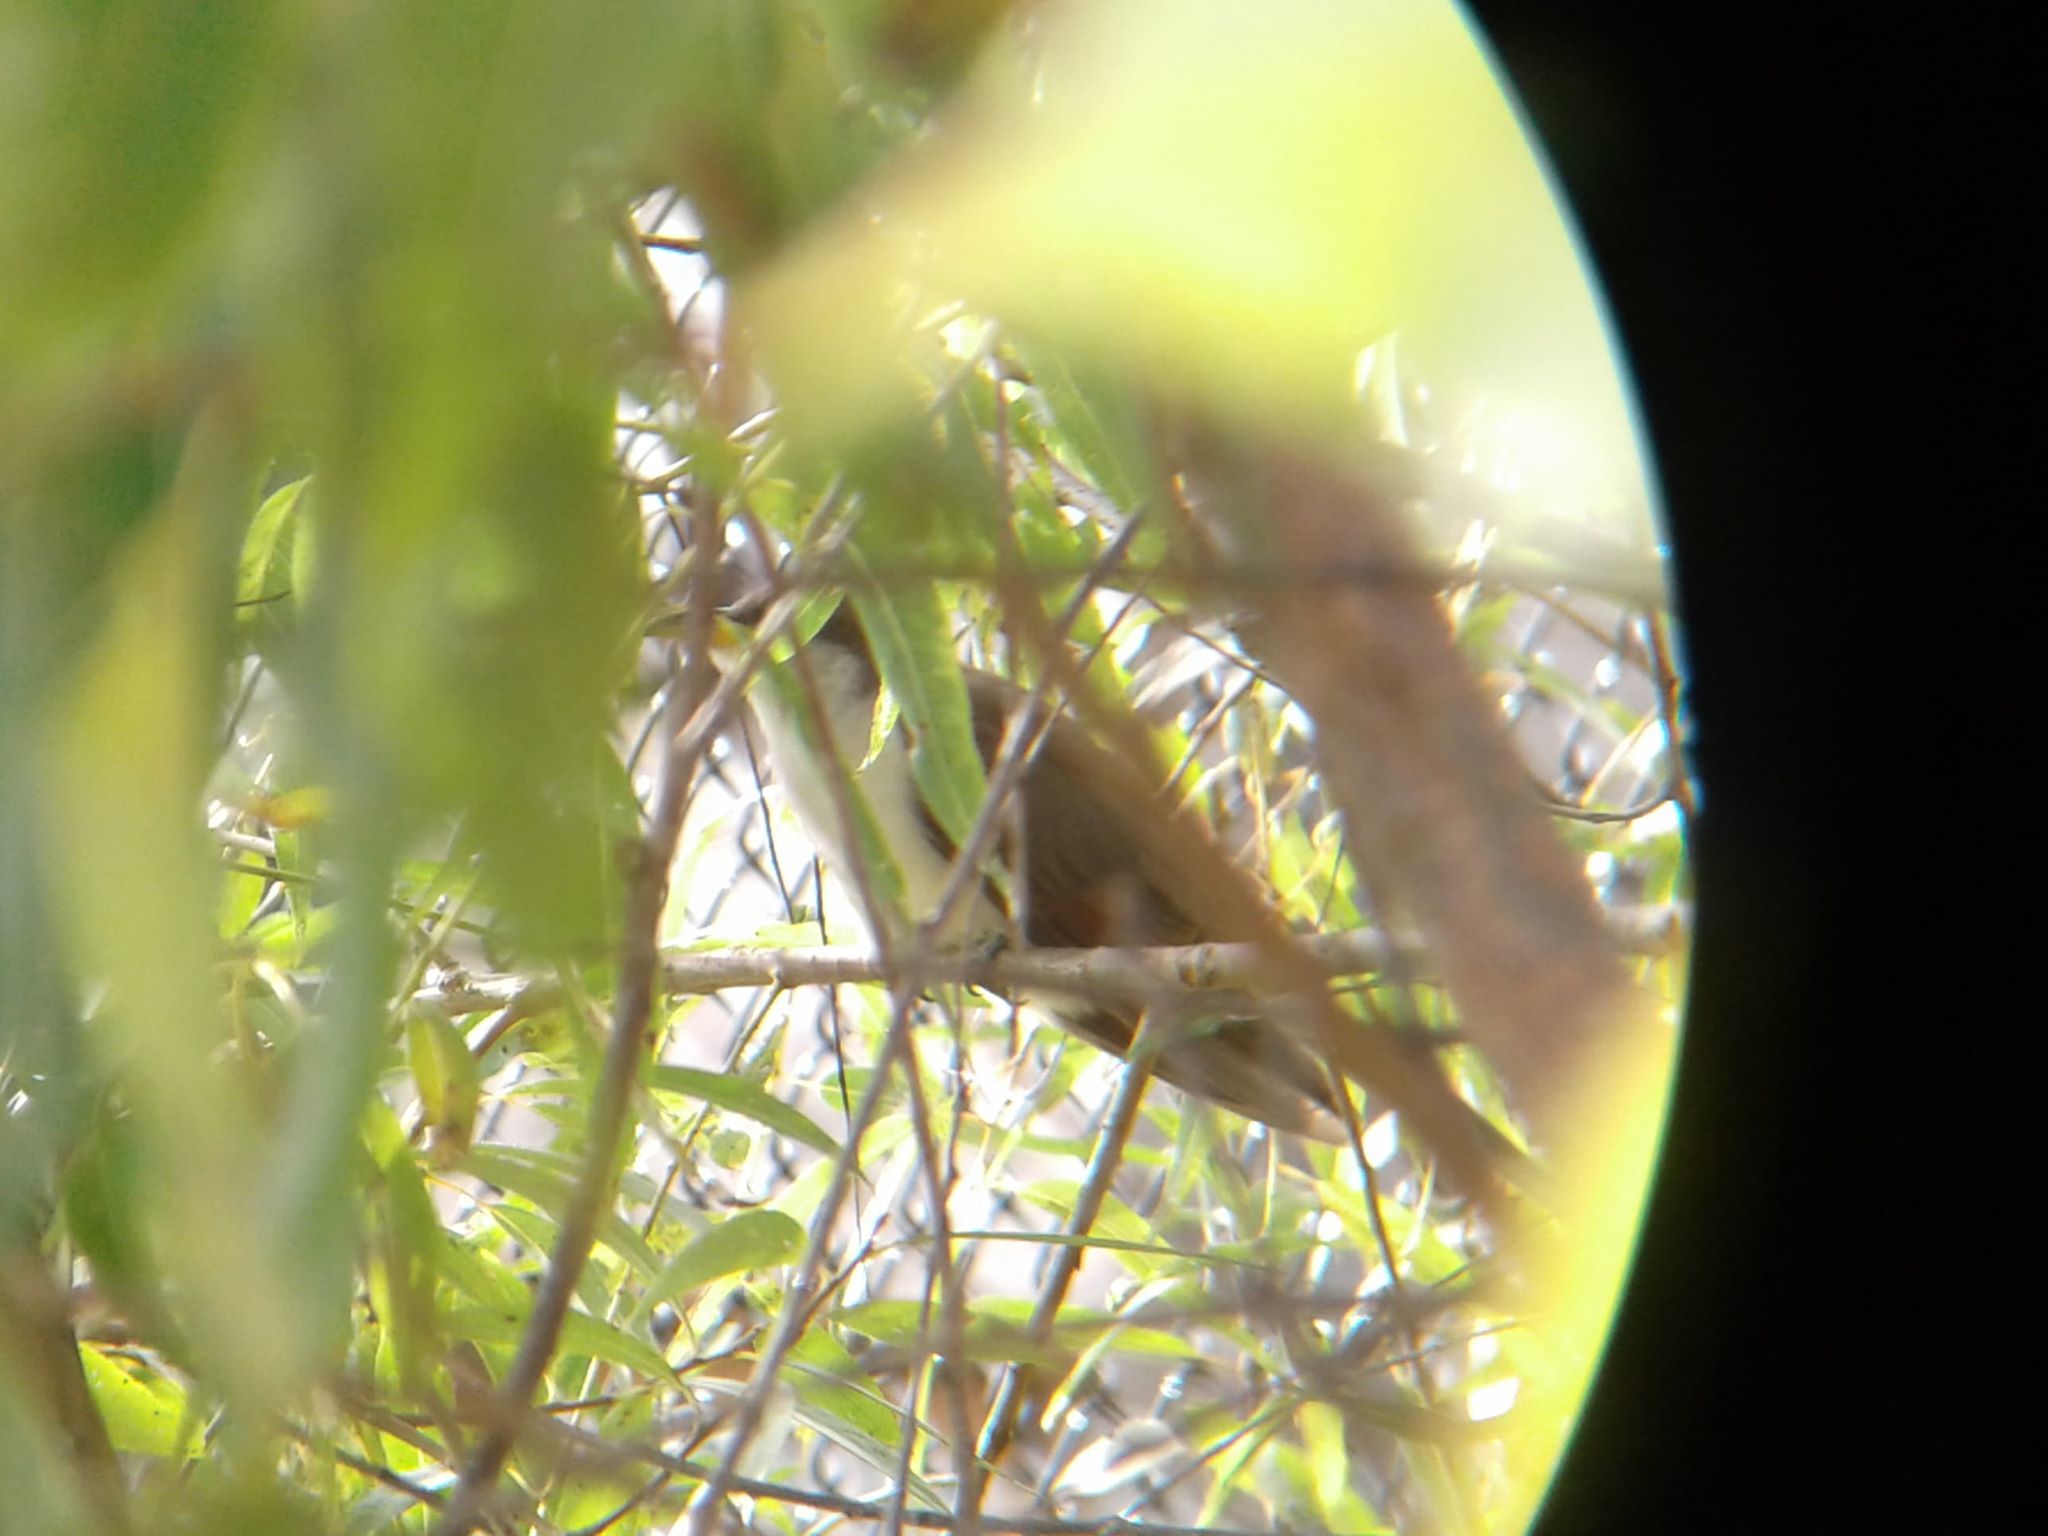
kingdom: Animalia
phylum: Chordata
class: Aves
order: Cuculiformes
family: Cuculidae
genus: Coccyzus
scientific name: Coccyzus americanus
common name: Yellow-billed cuckoo
